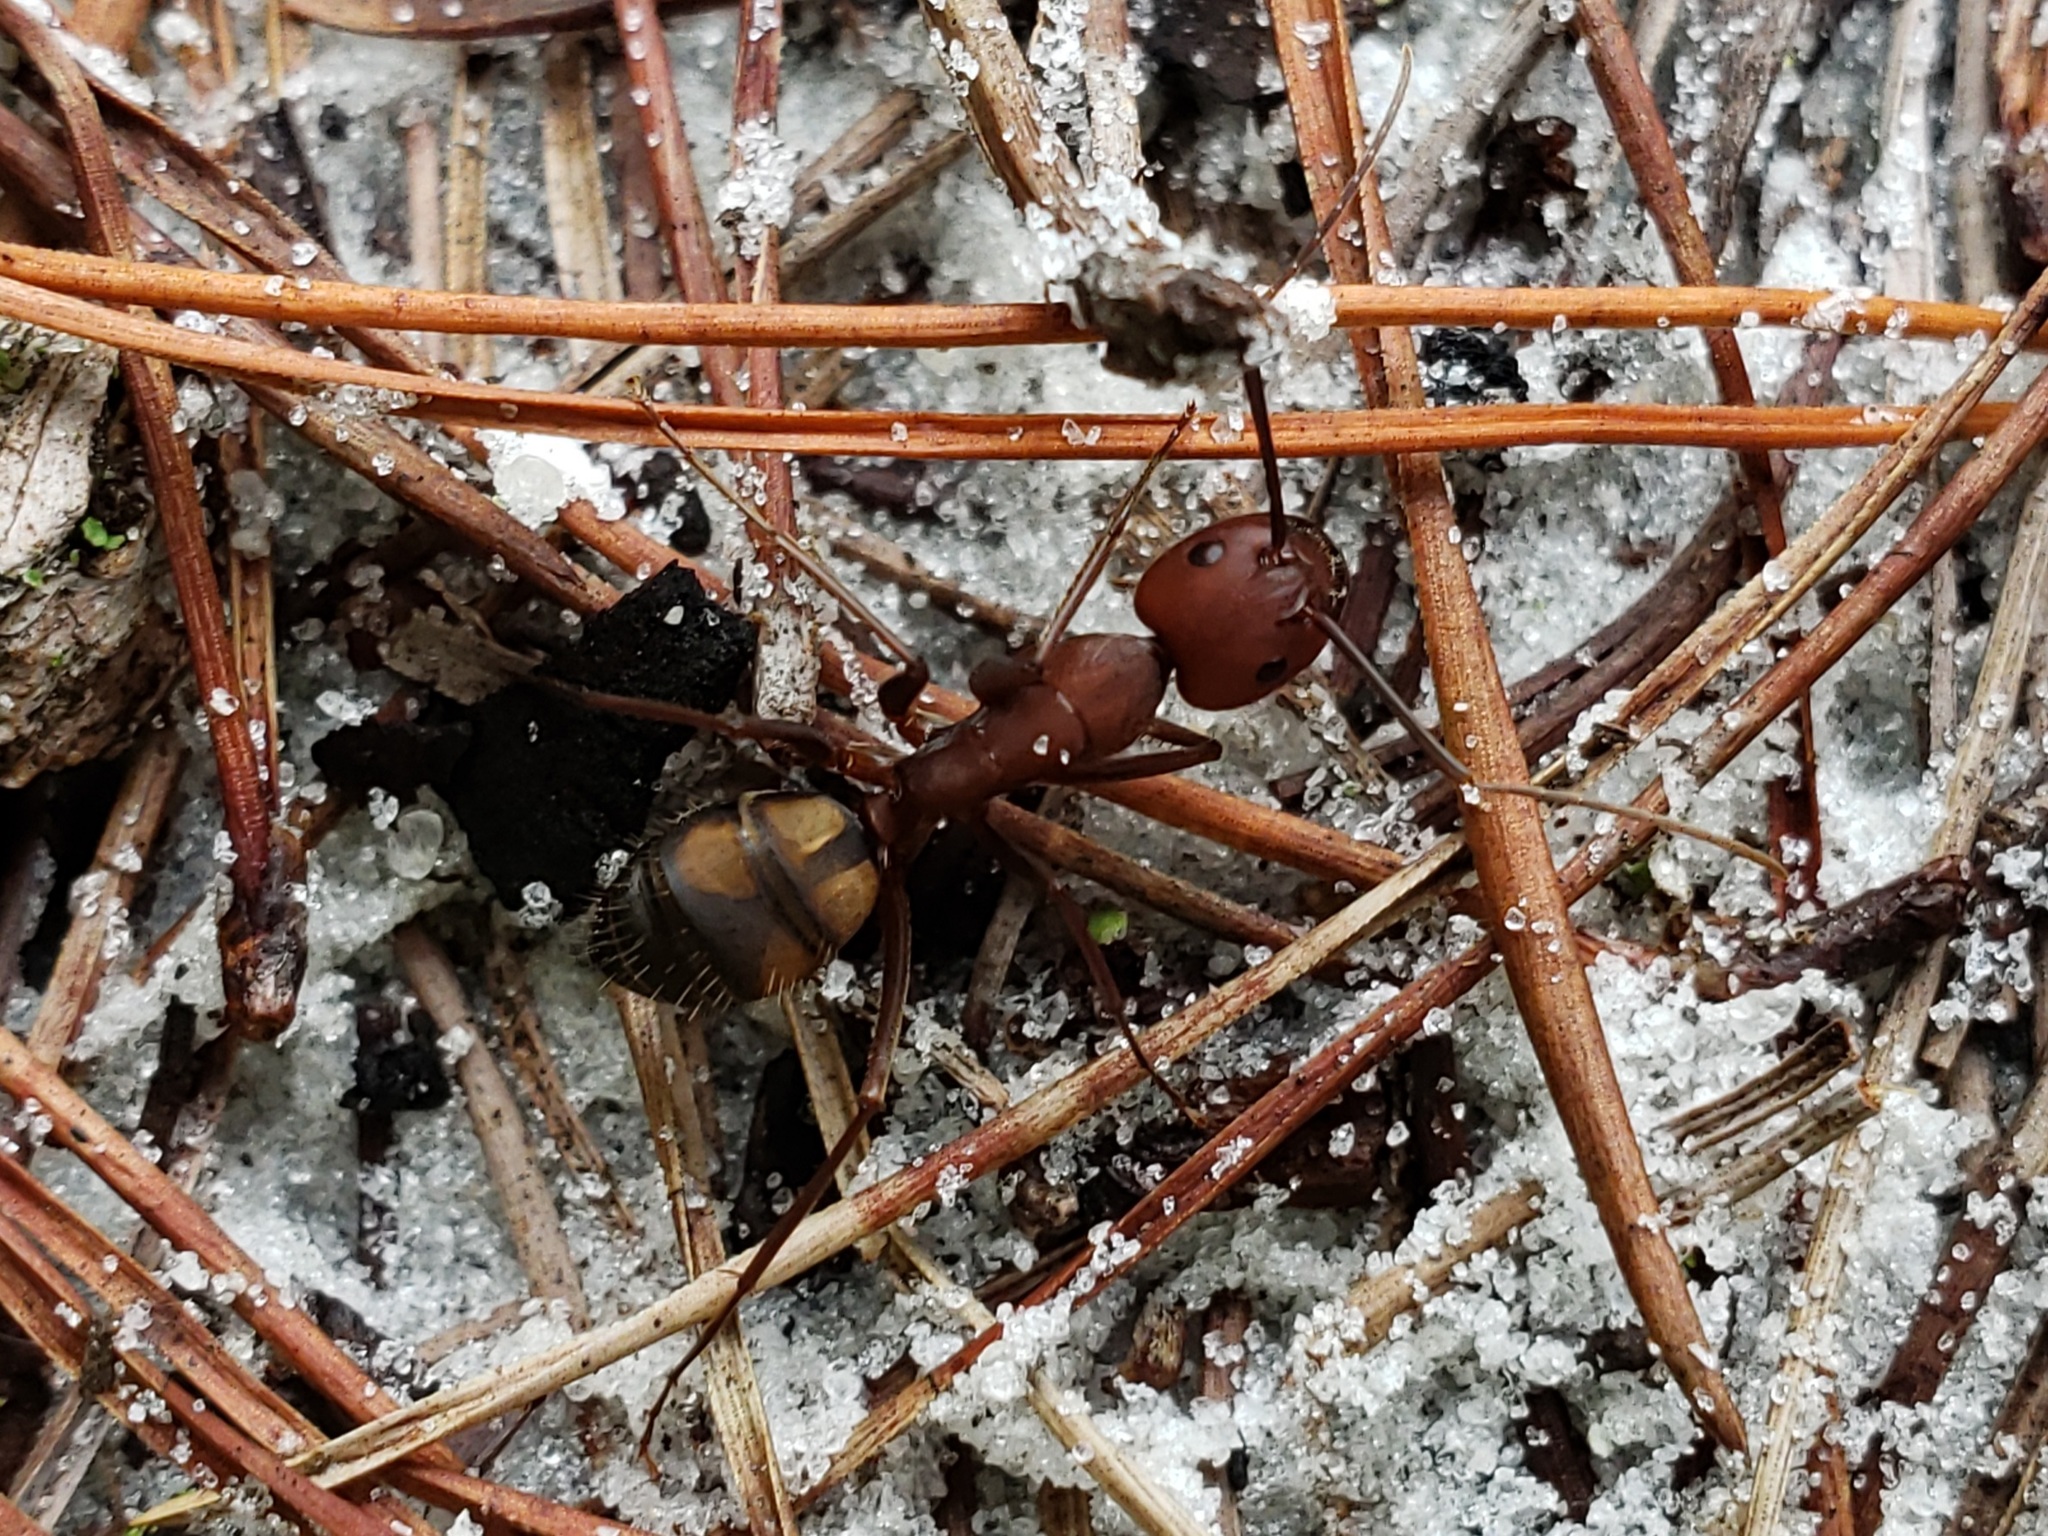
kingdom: Animalia
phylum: Arthropoda
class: Insecta
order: Hymenoptera
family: Formicidae
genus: Camponotus
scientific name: Camponotus socius
